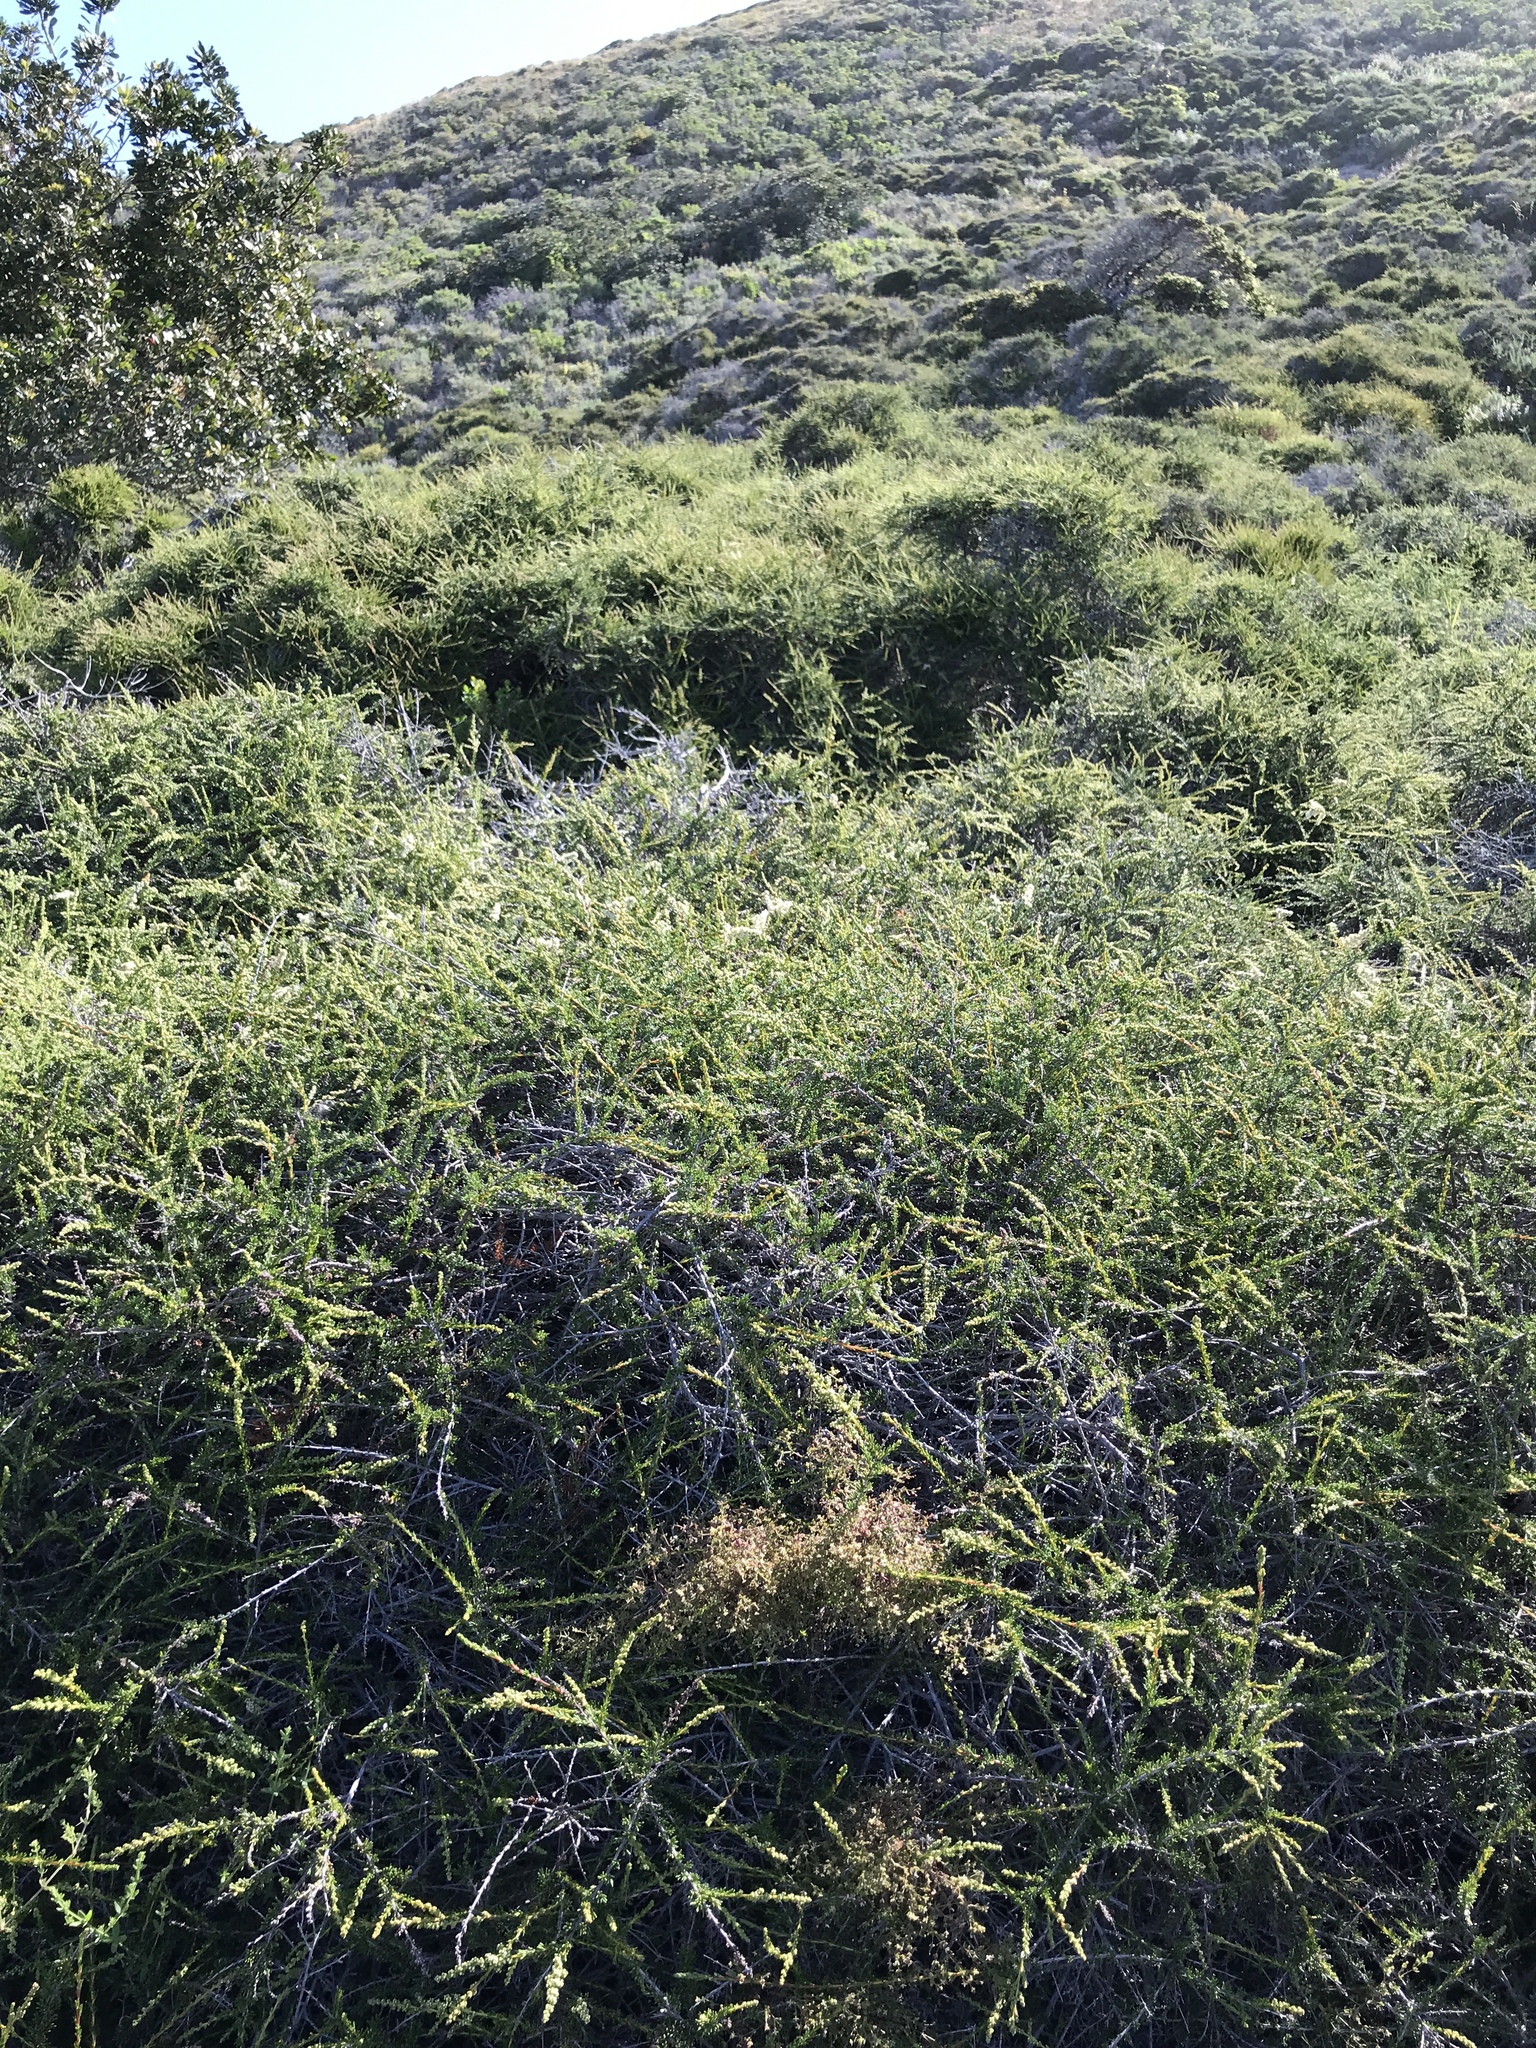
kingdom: Plantae
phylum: Tracheophyta
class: Magnoliopsida
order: Rosales
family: Rosaceae
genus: Adenostoma
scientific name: Adenostoma fasciculatum
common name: Chamise
